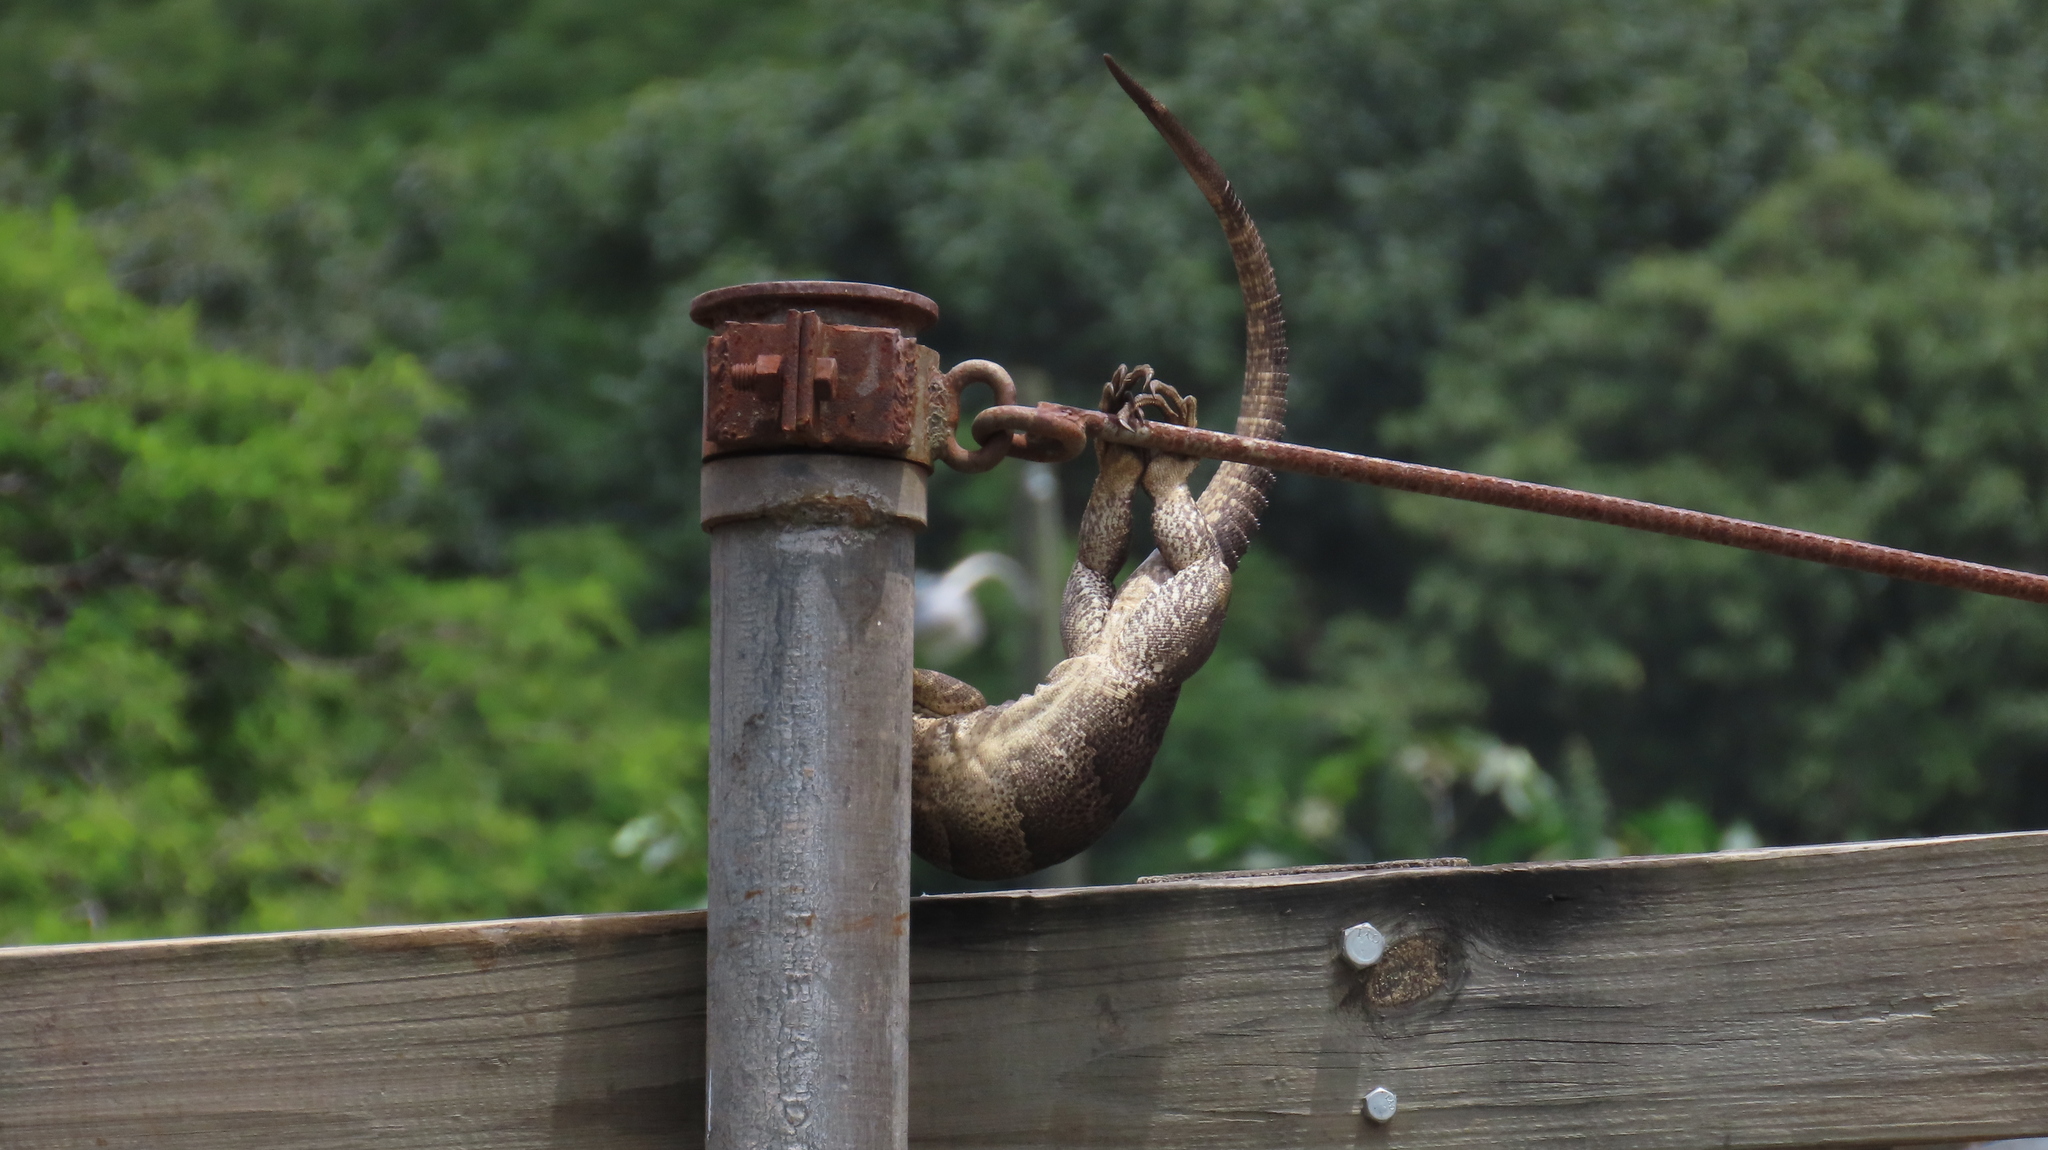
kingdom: Animalia
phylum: Chordata
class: Squamata
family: Iguanidae
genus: Ctenosaura
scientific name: Ctenosaura similis
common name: Black spiny-tailed iguana
